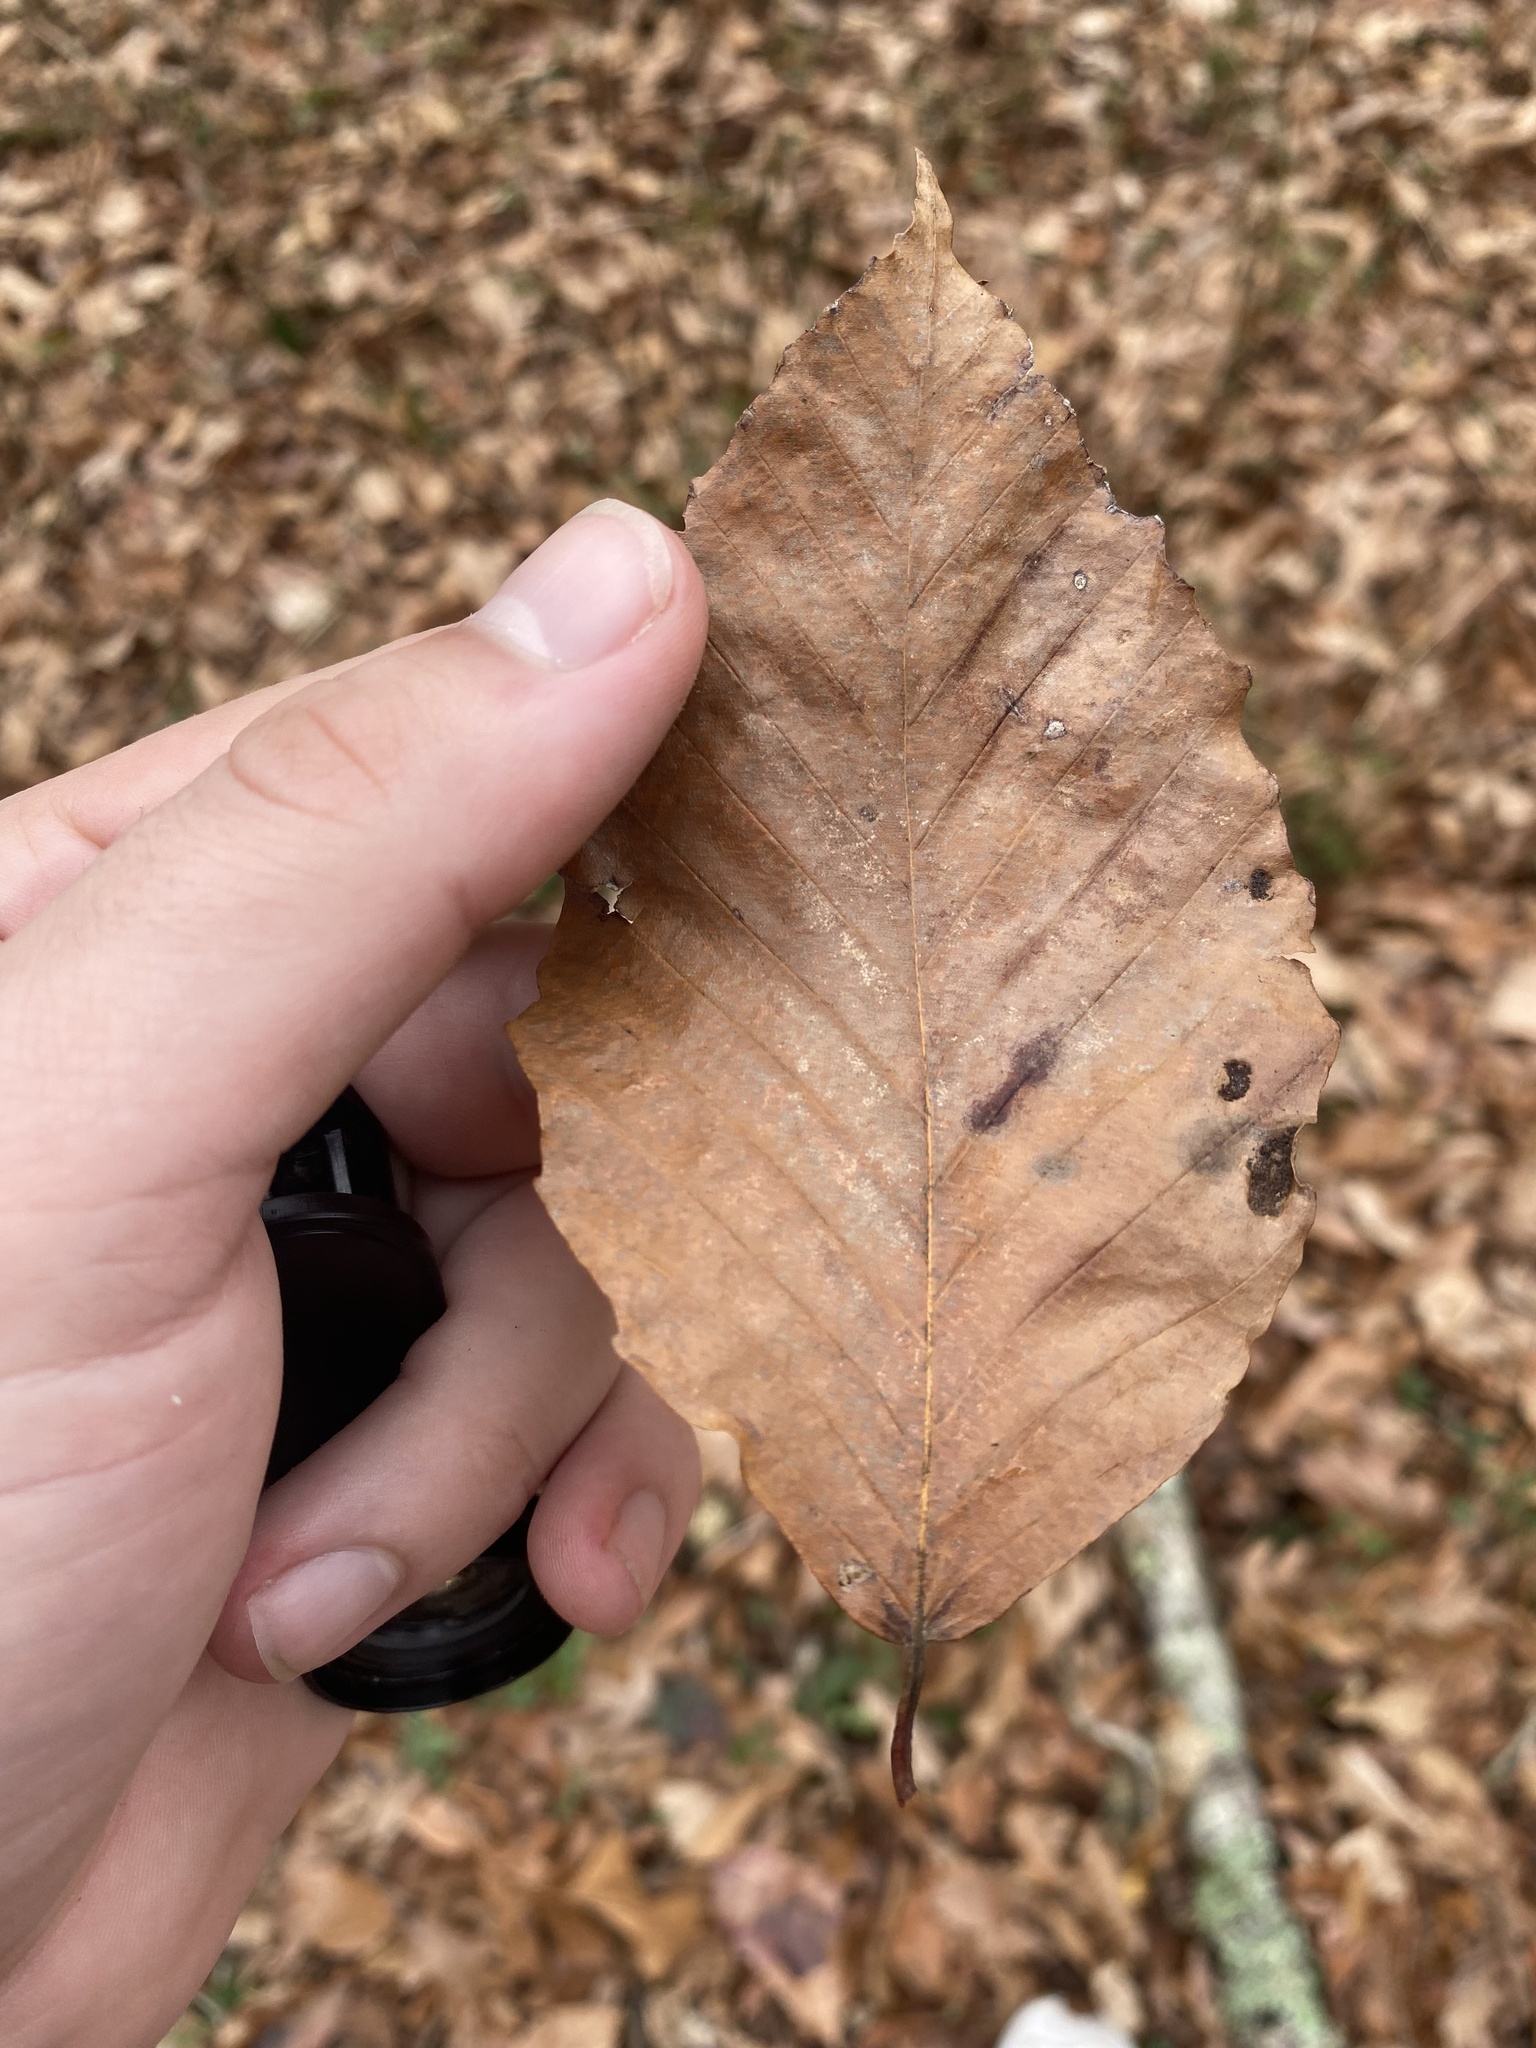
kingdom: Plantae
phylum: Tracheophyta
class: Magnoliopsida
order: Fagales
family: Fagaceae
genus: Fagus
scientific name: Fagus grandifolia
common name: American beech
